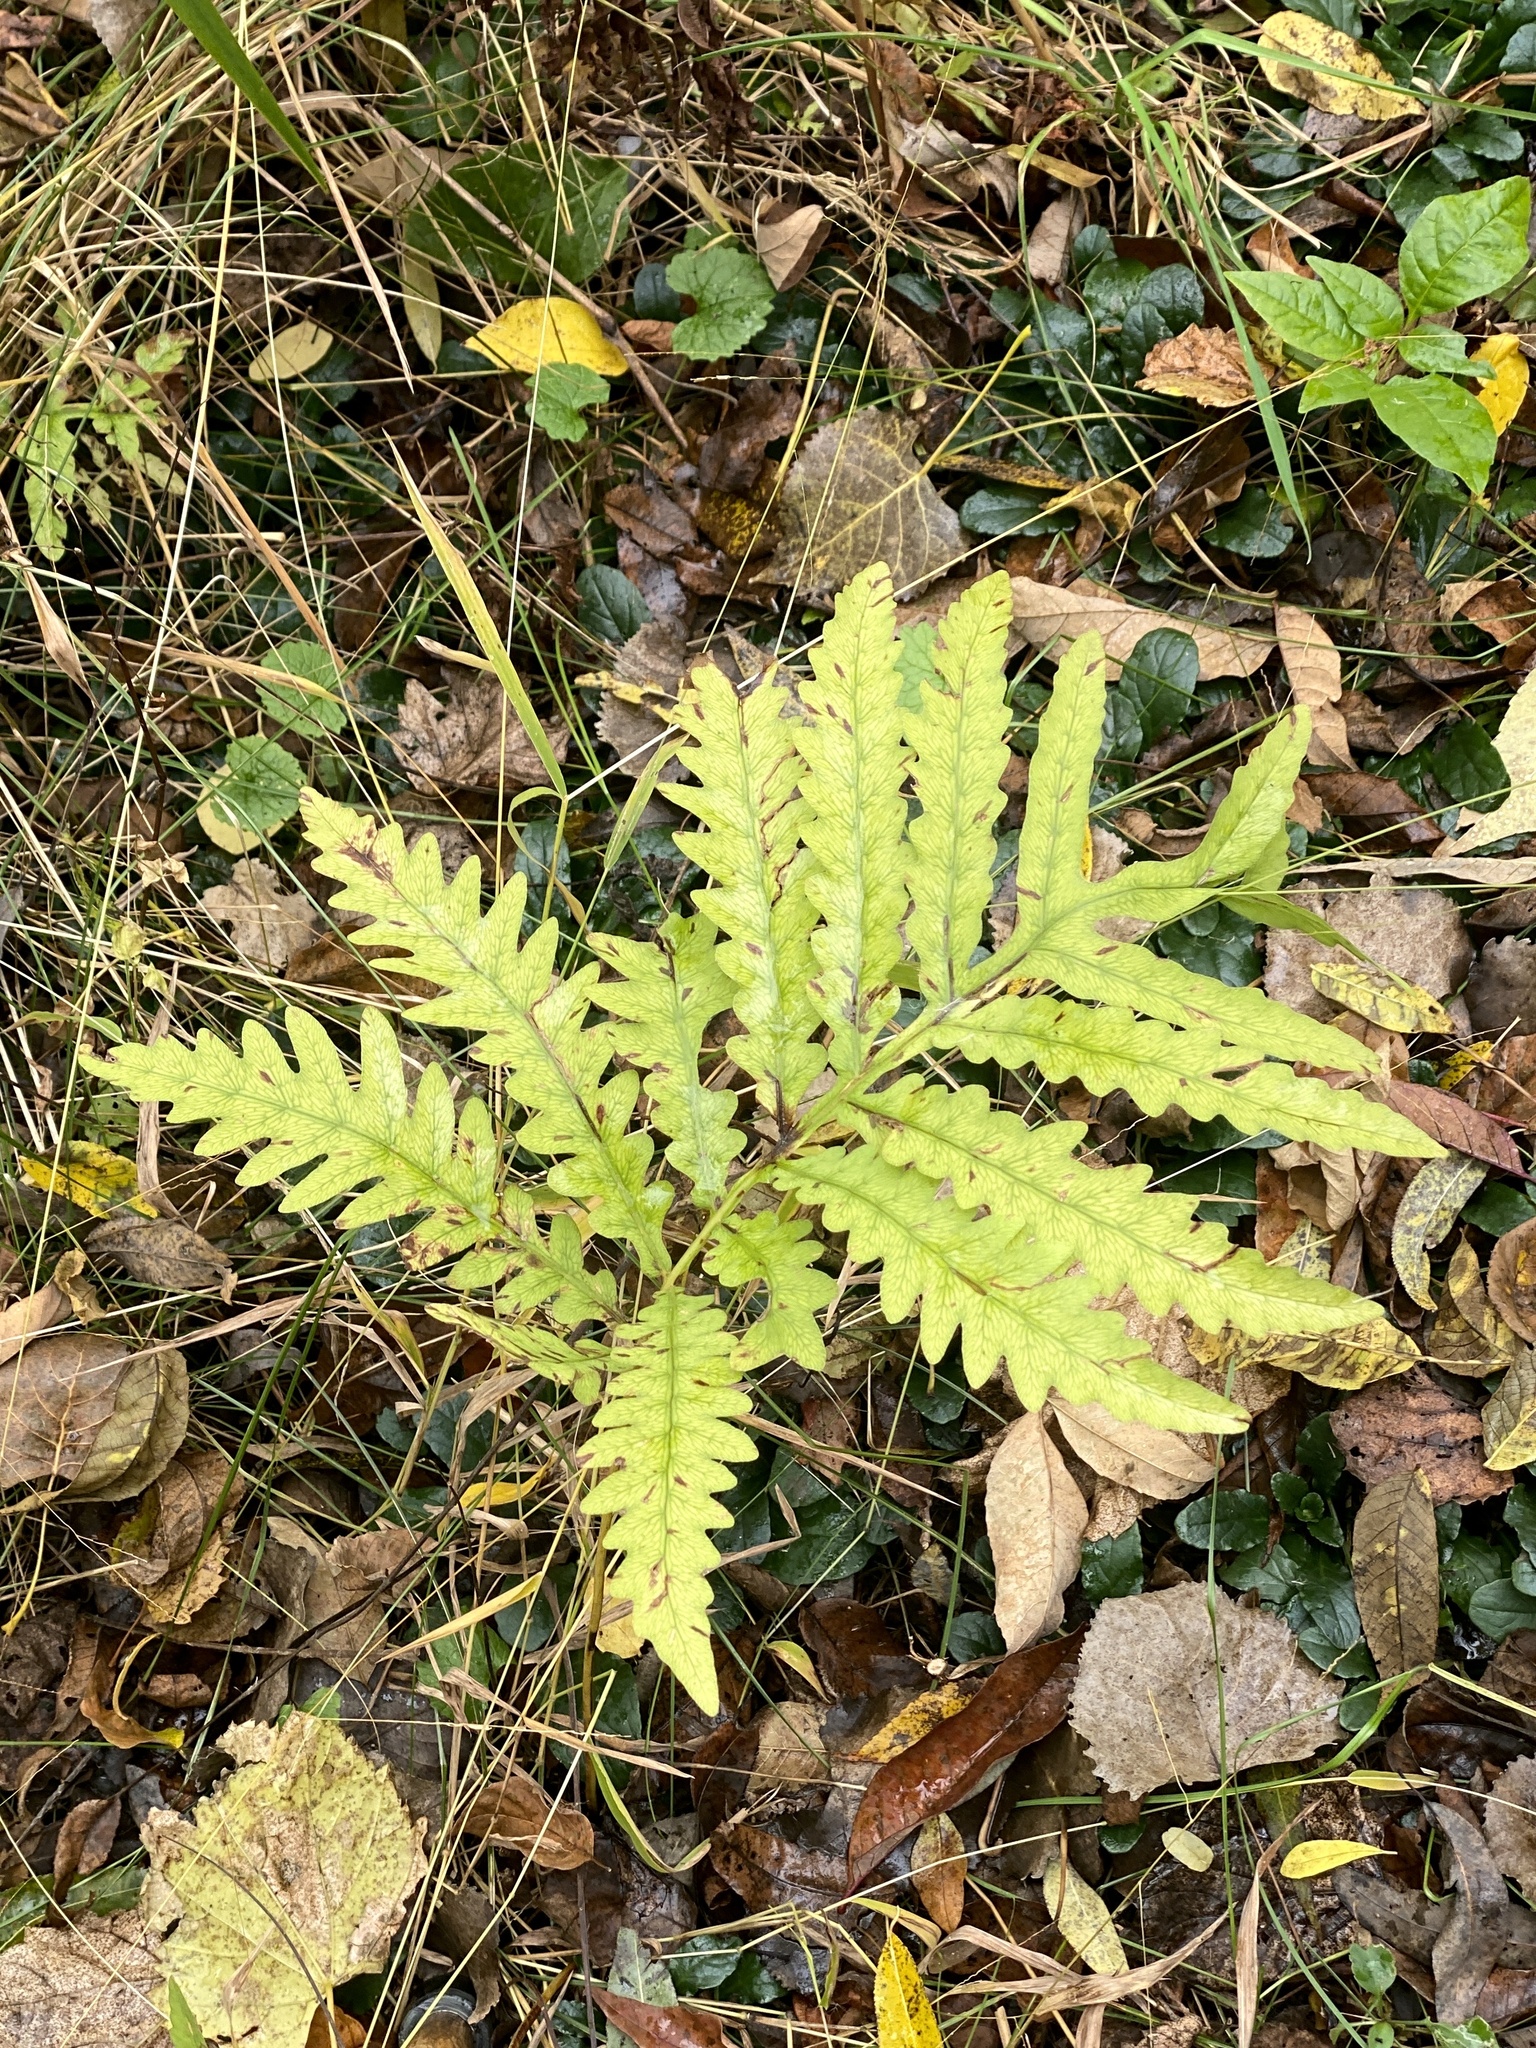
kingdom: Plantae
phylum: Tracheophyta
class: Polypodiopsida
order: Polypodiales
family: Onocleaceae
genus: Onoclea
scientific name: Onoclea sensibilis
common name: Sensitive fern
